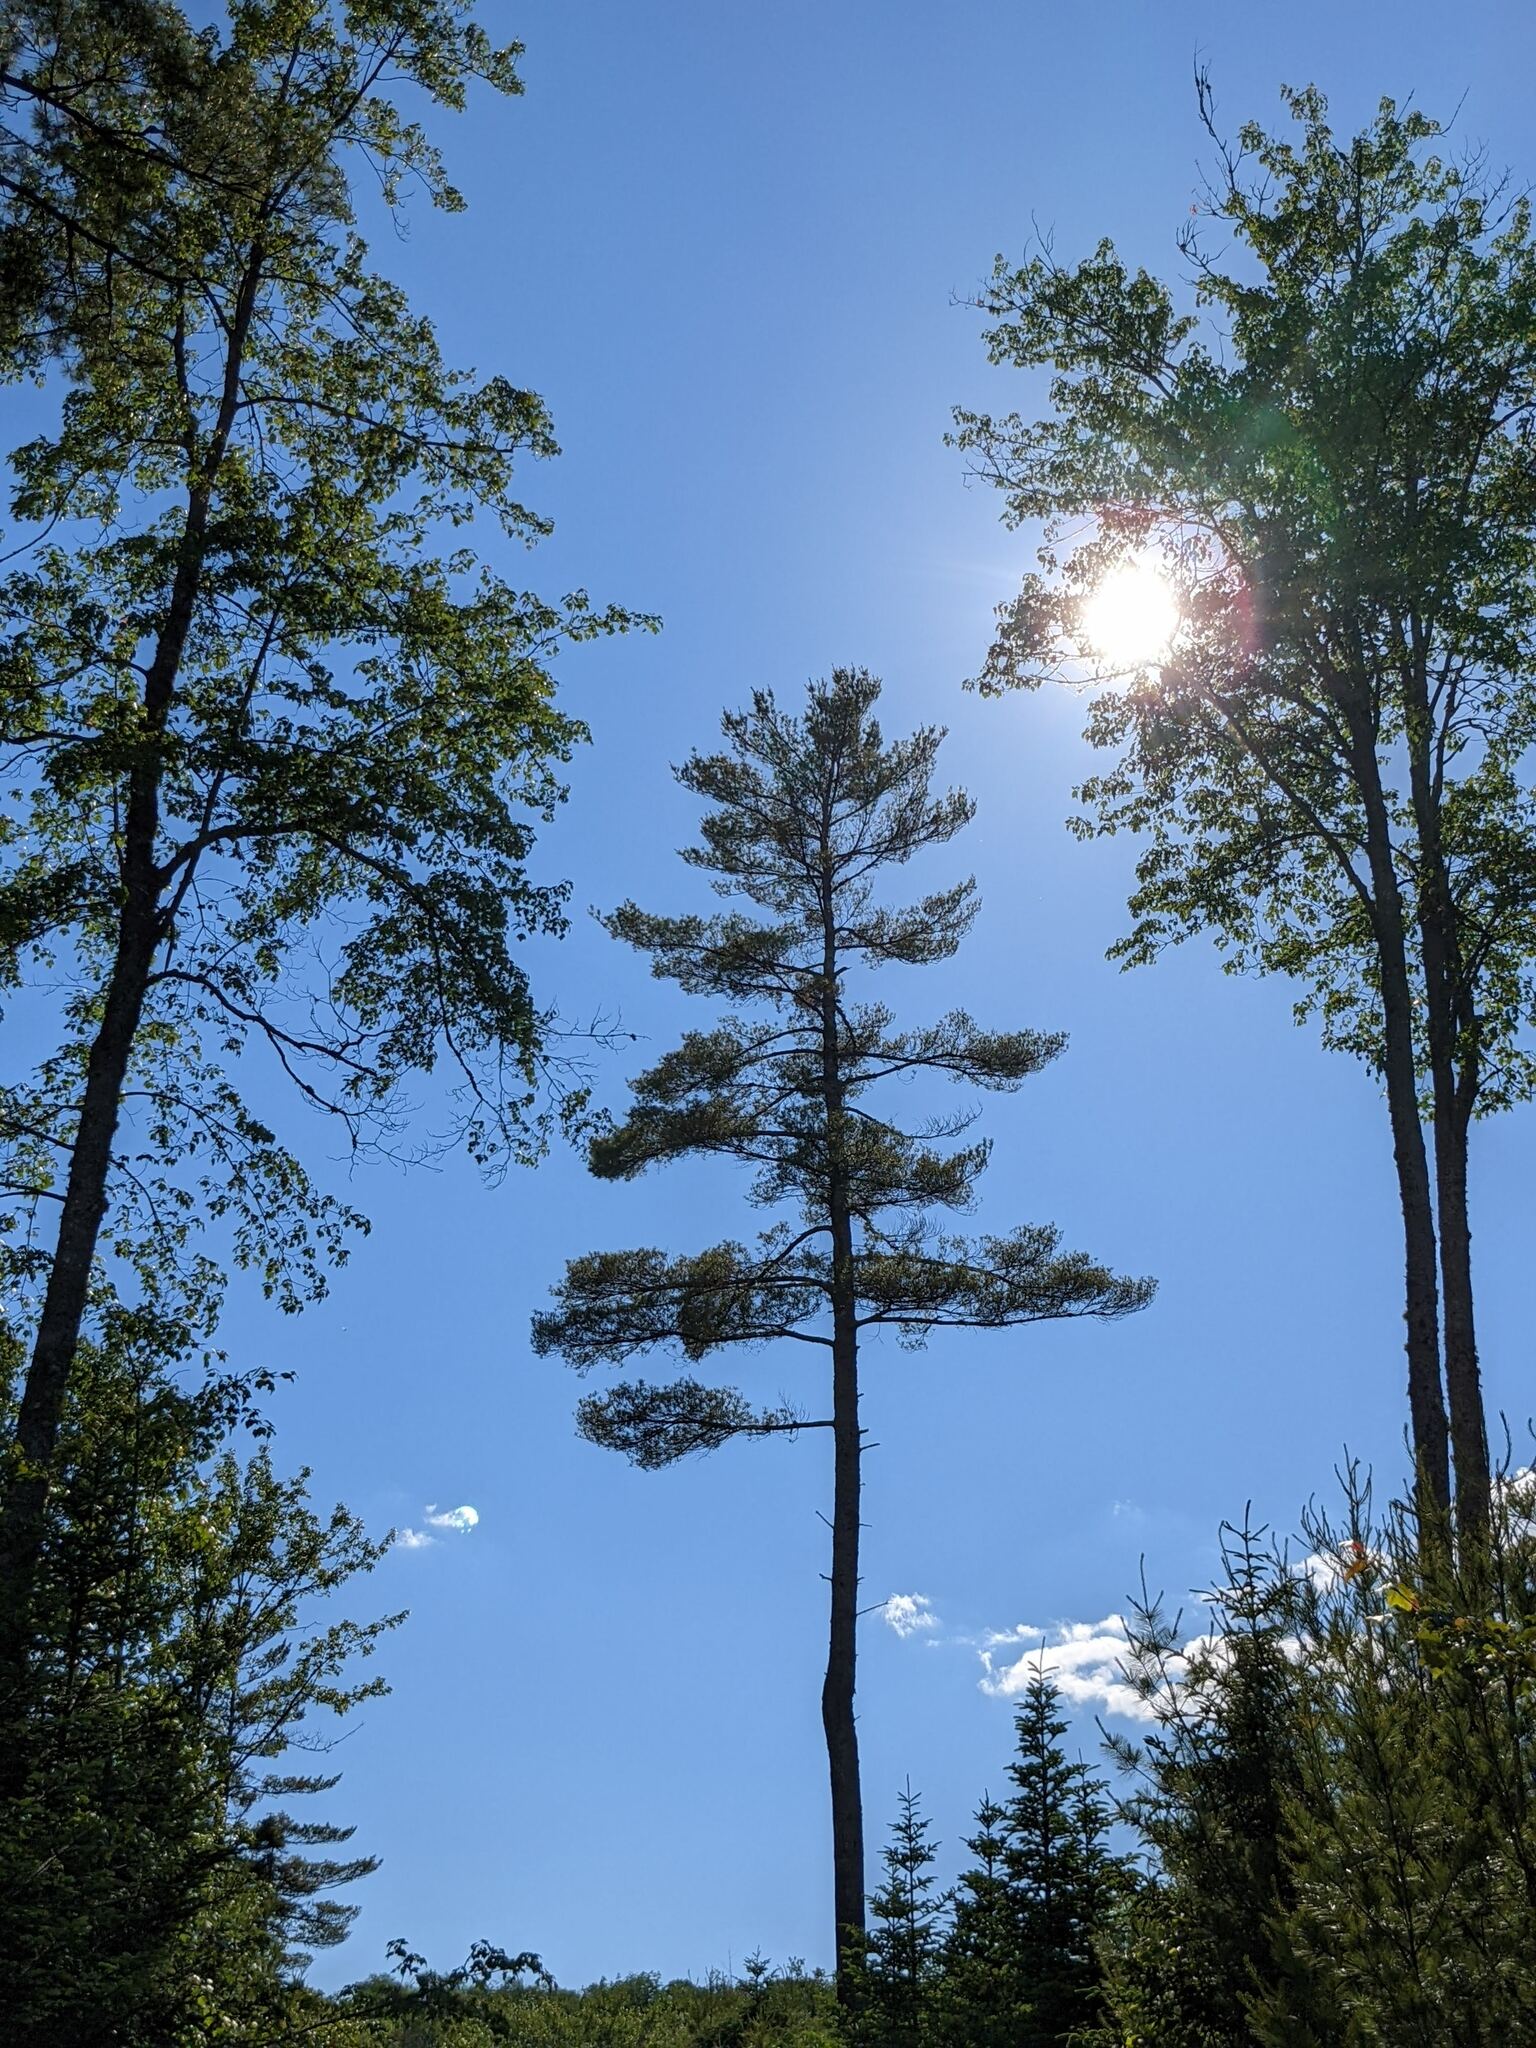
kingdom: Plantae
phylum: Tracheophyta
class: Pinopsida
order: Pinales
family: Pinaceae
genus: Pinus
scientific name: Pinus strobus
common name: Weymouth pine
